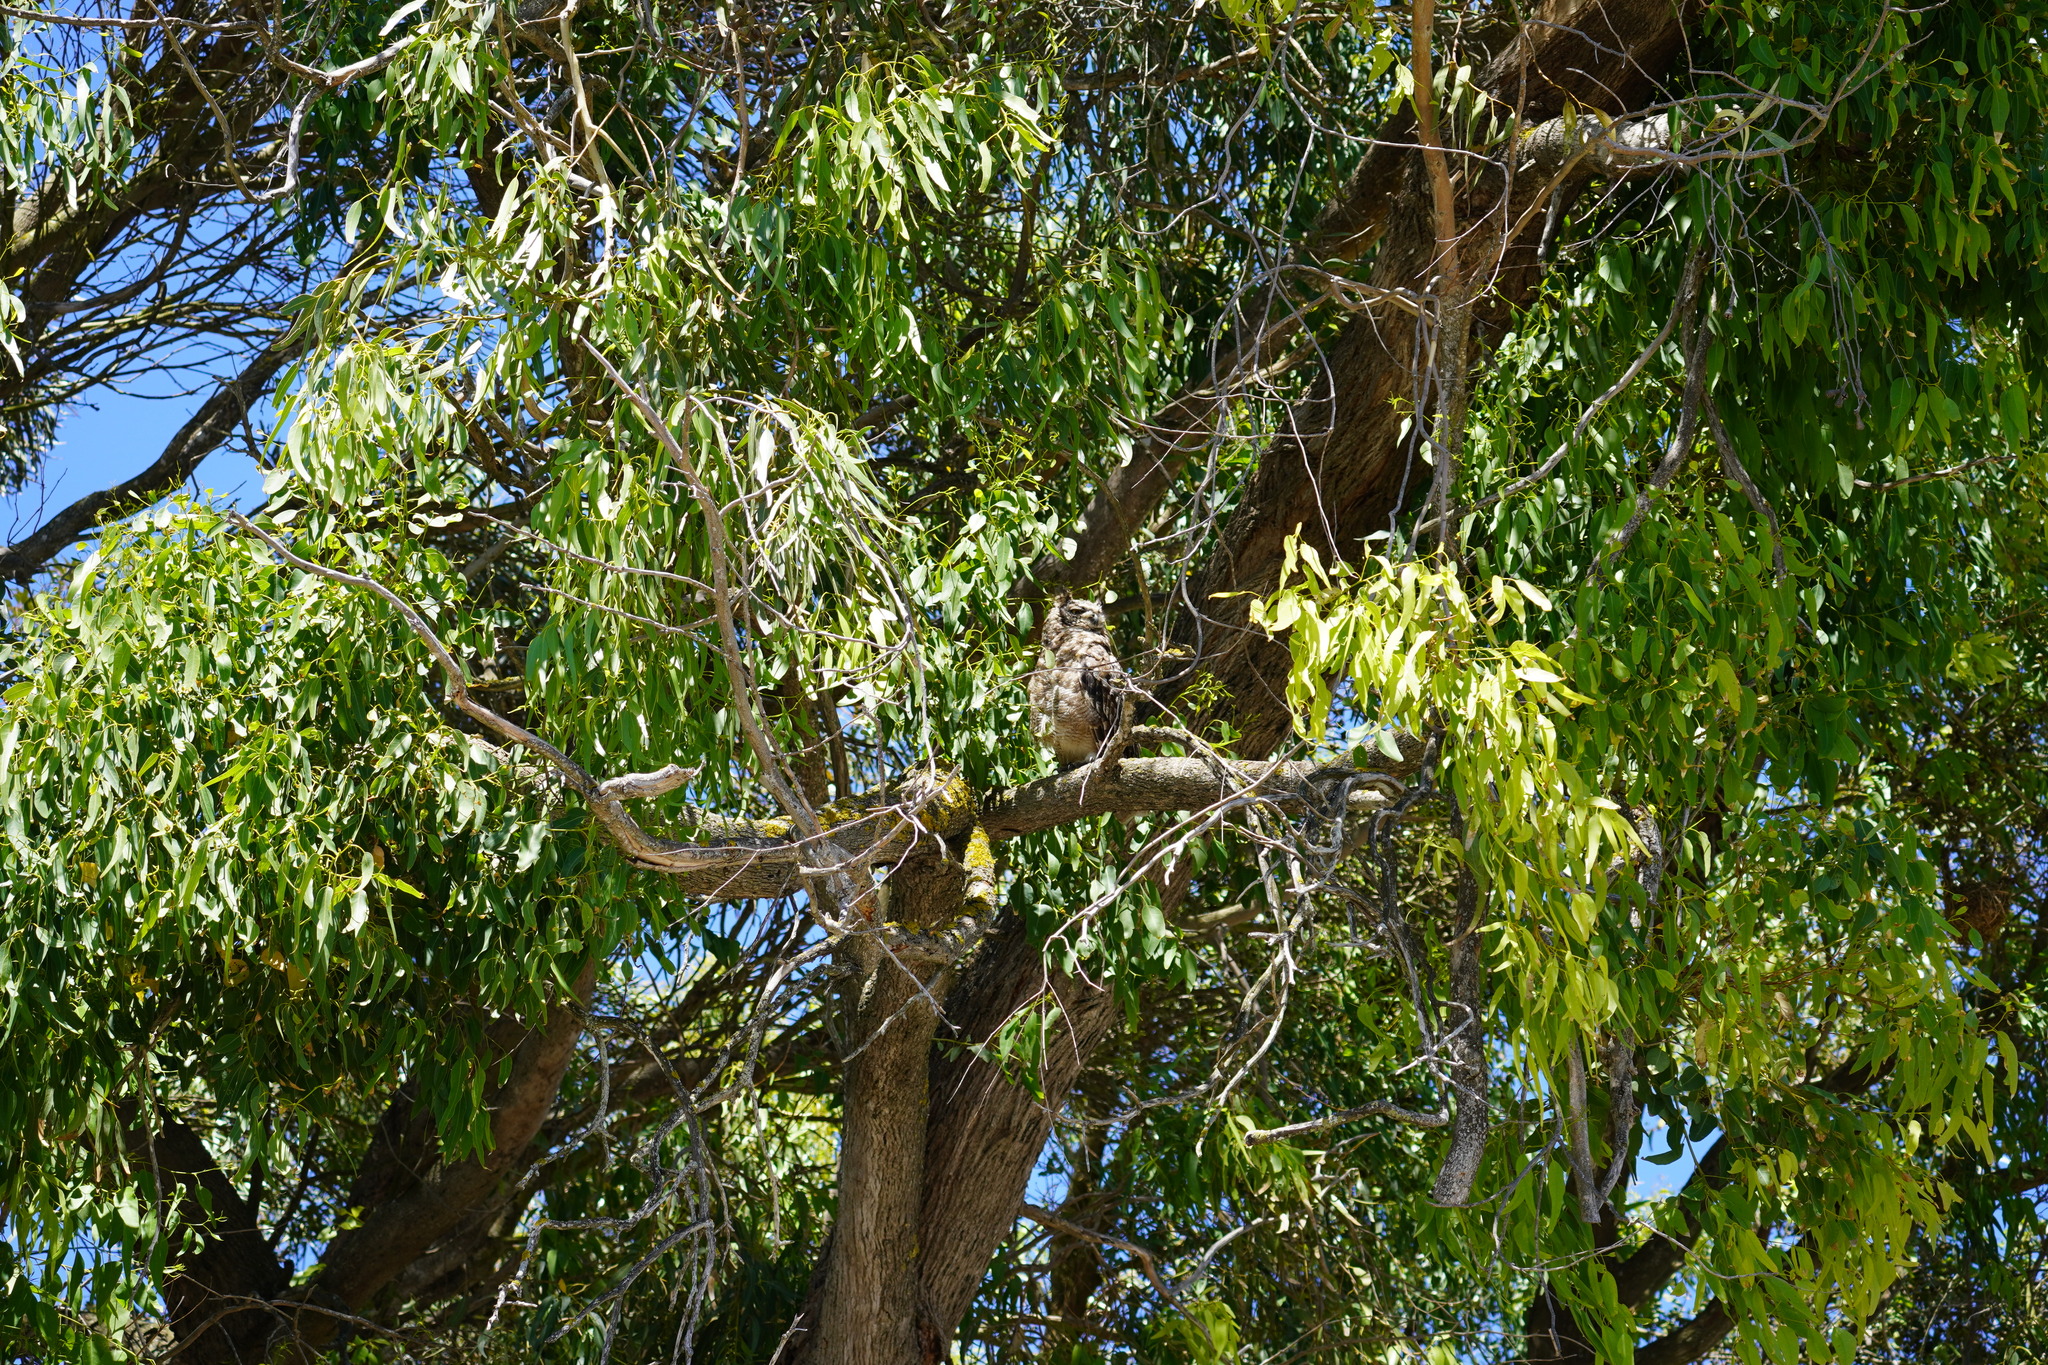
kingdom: Animalia
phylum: Chordata
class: Aves
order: Strigiformes
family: Strigidae
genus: Bubo
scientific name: Bubo africanus
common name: Spotted eagle-owl
